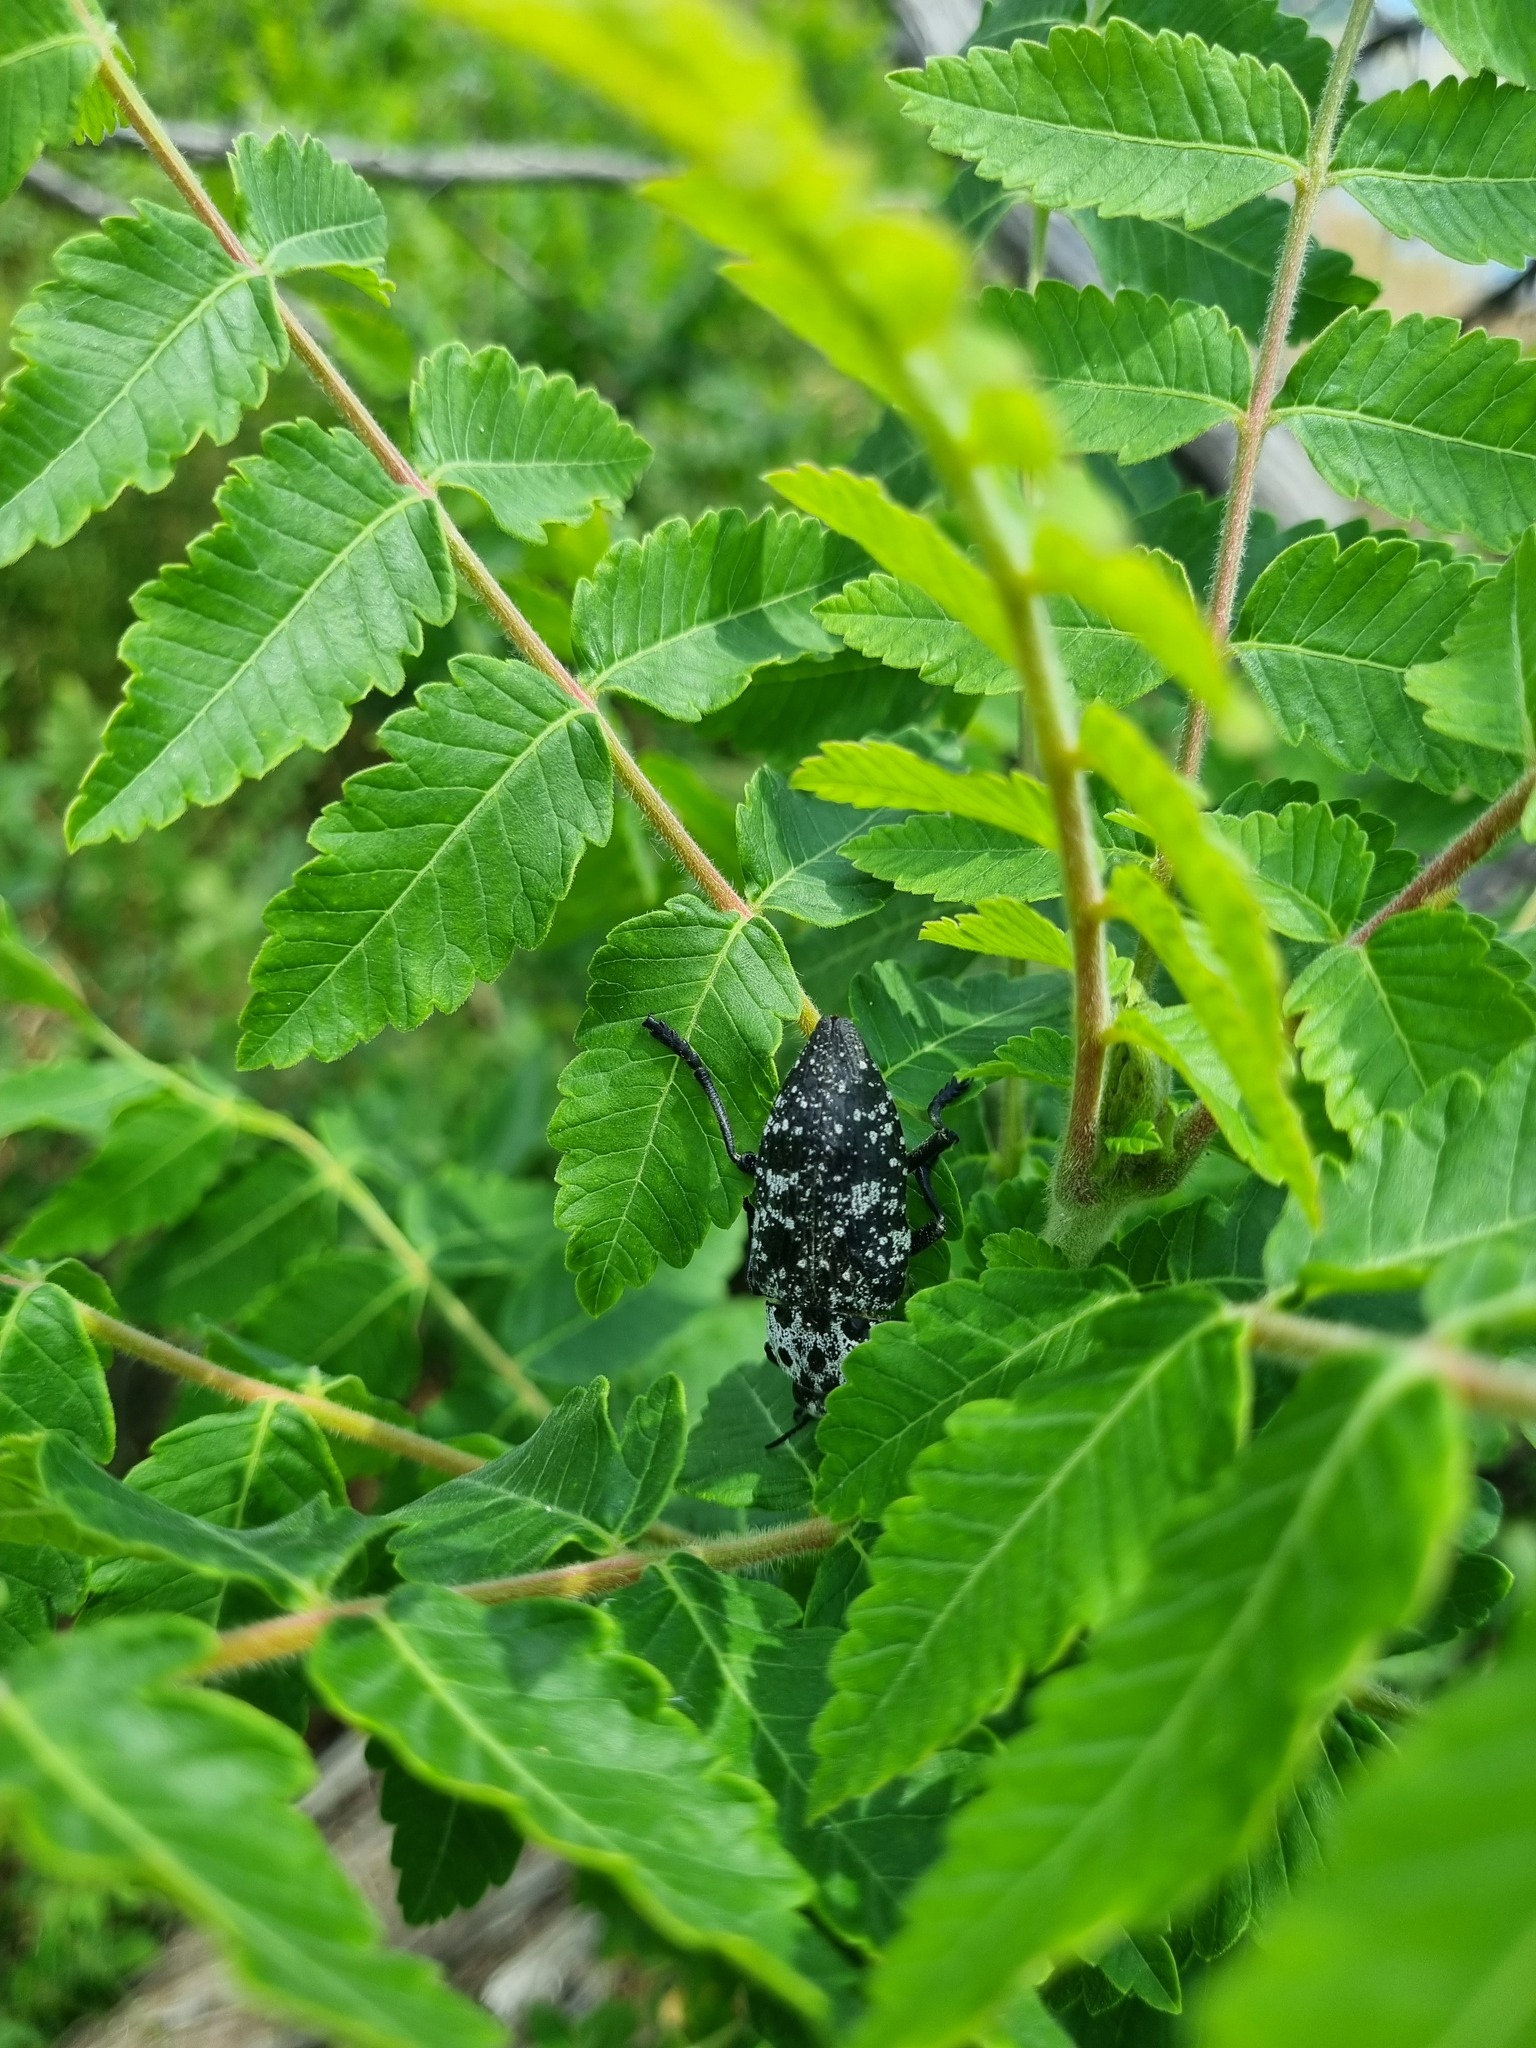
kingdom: Animalia
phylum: Arthropoda
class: Insecta
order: Coleoptera
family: Buprestidae
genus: Capnodis
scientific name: Capnodis cariosa
